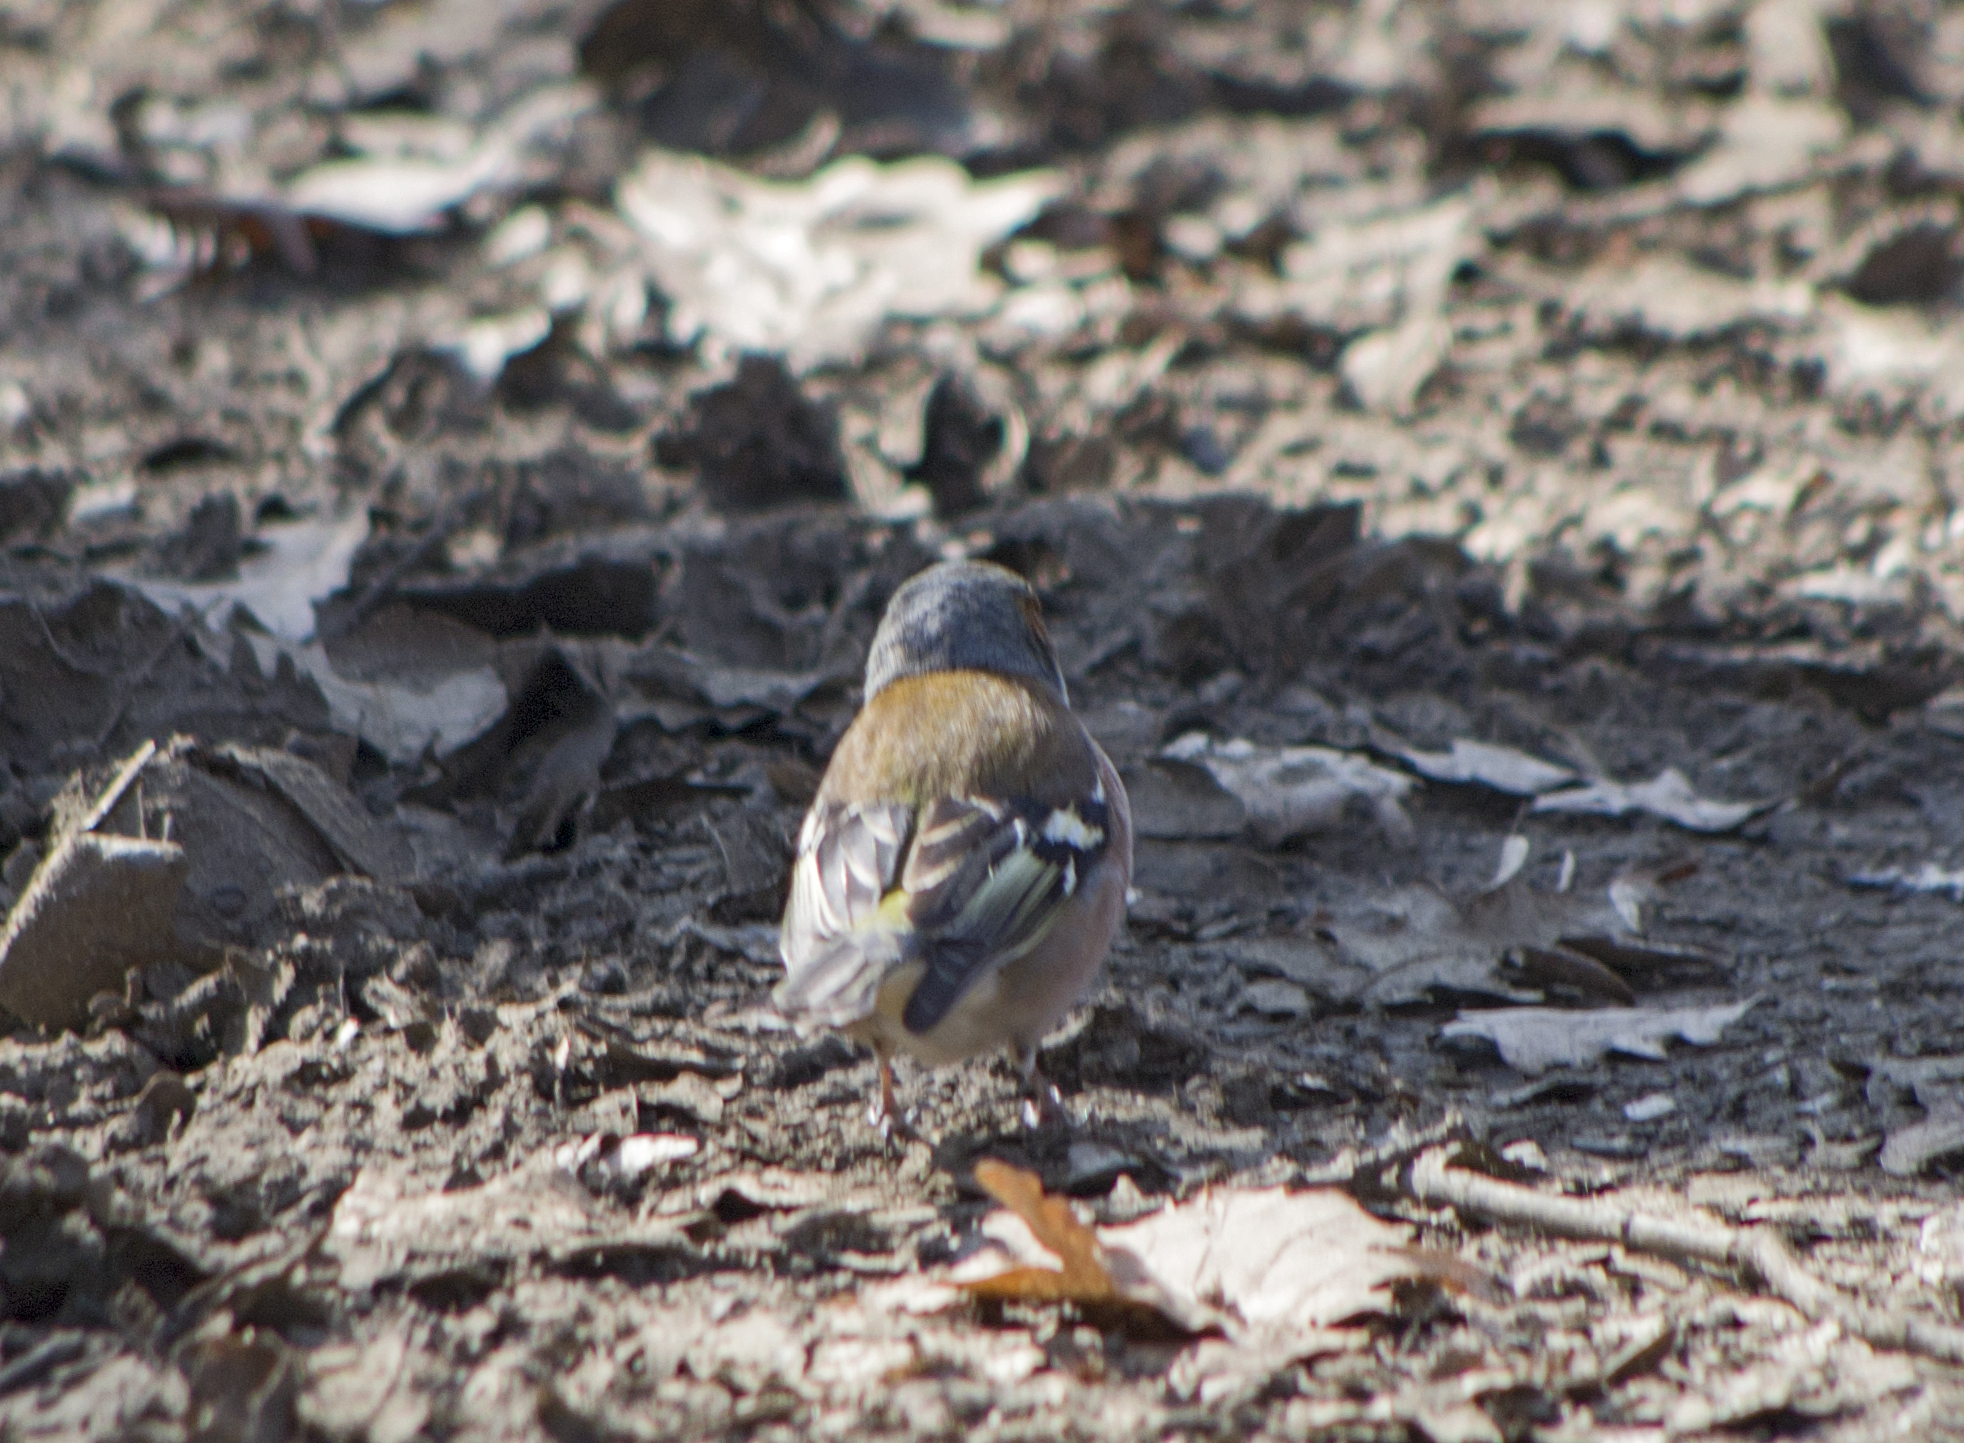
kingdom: Animalia
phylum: Chordata
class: Aves
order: Passeriformes
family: Fringillidae
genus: Fringilla
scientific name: Fringilla coelebs
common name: Common chaffinch
